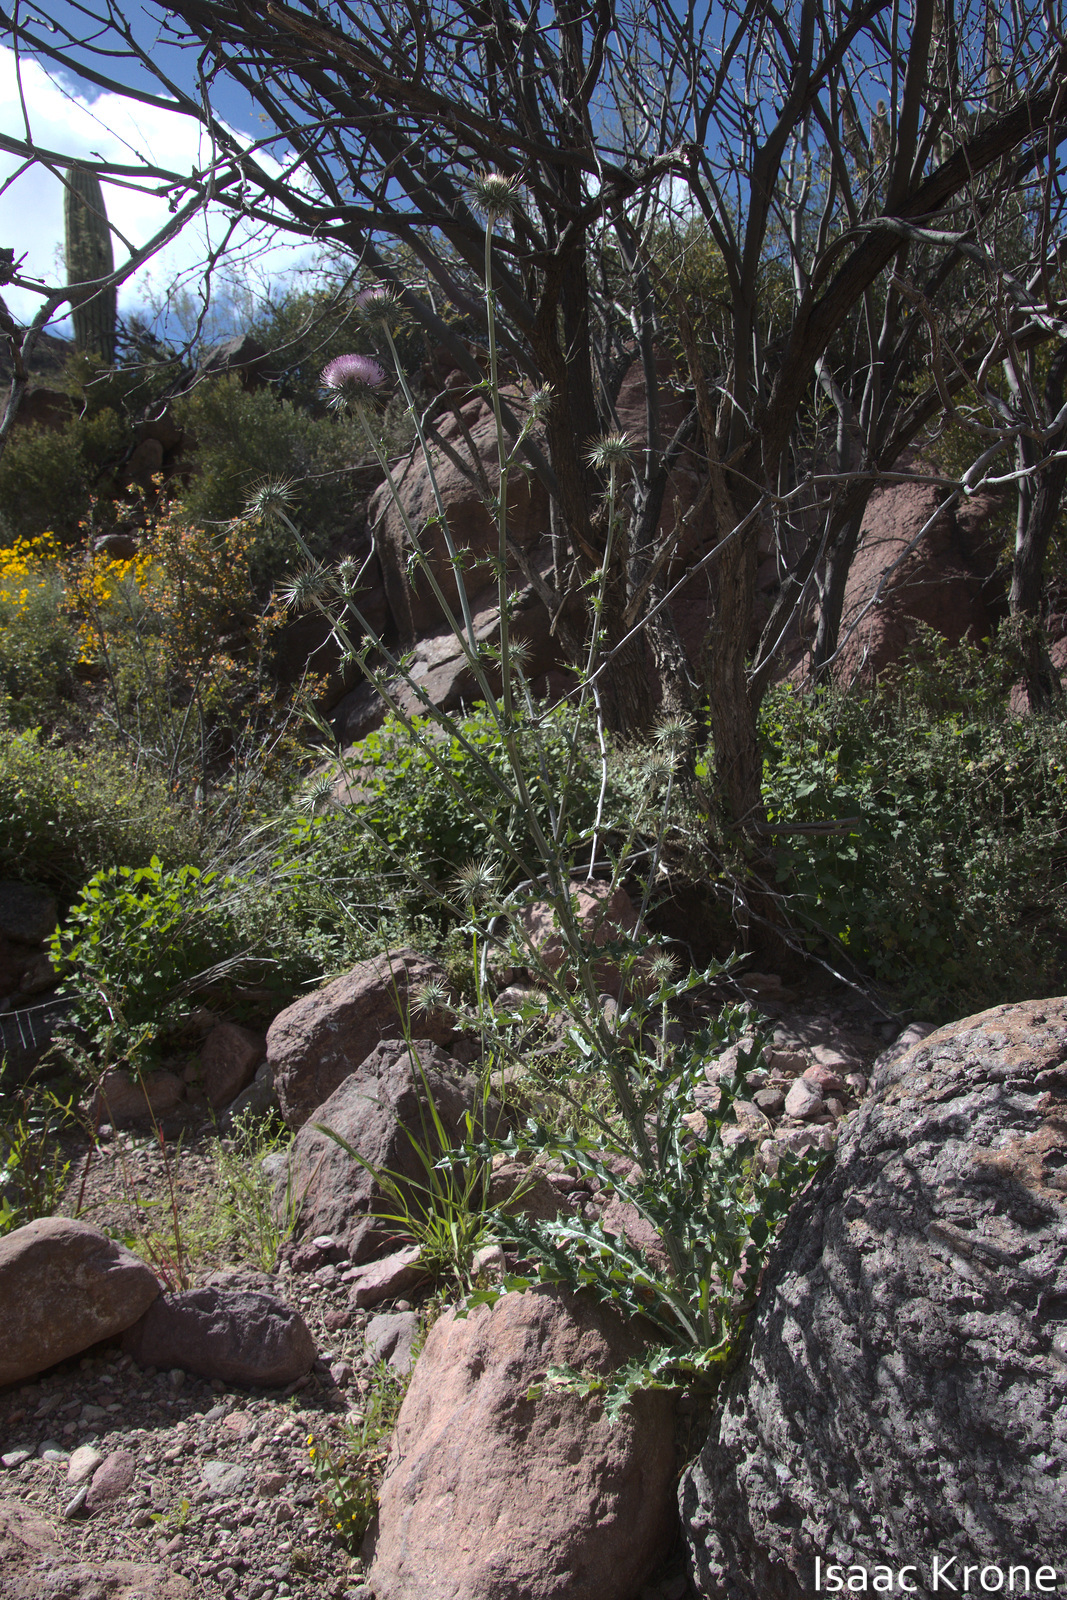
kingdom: Plantae
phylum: Tracheophyta
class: Magnoliopsida
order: Asterales
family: Asteraceae
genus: Cirsium
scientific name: Cirsium neomexicanum
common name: New mexico thistle
